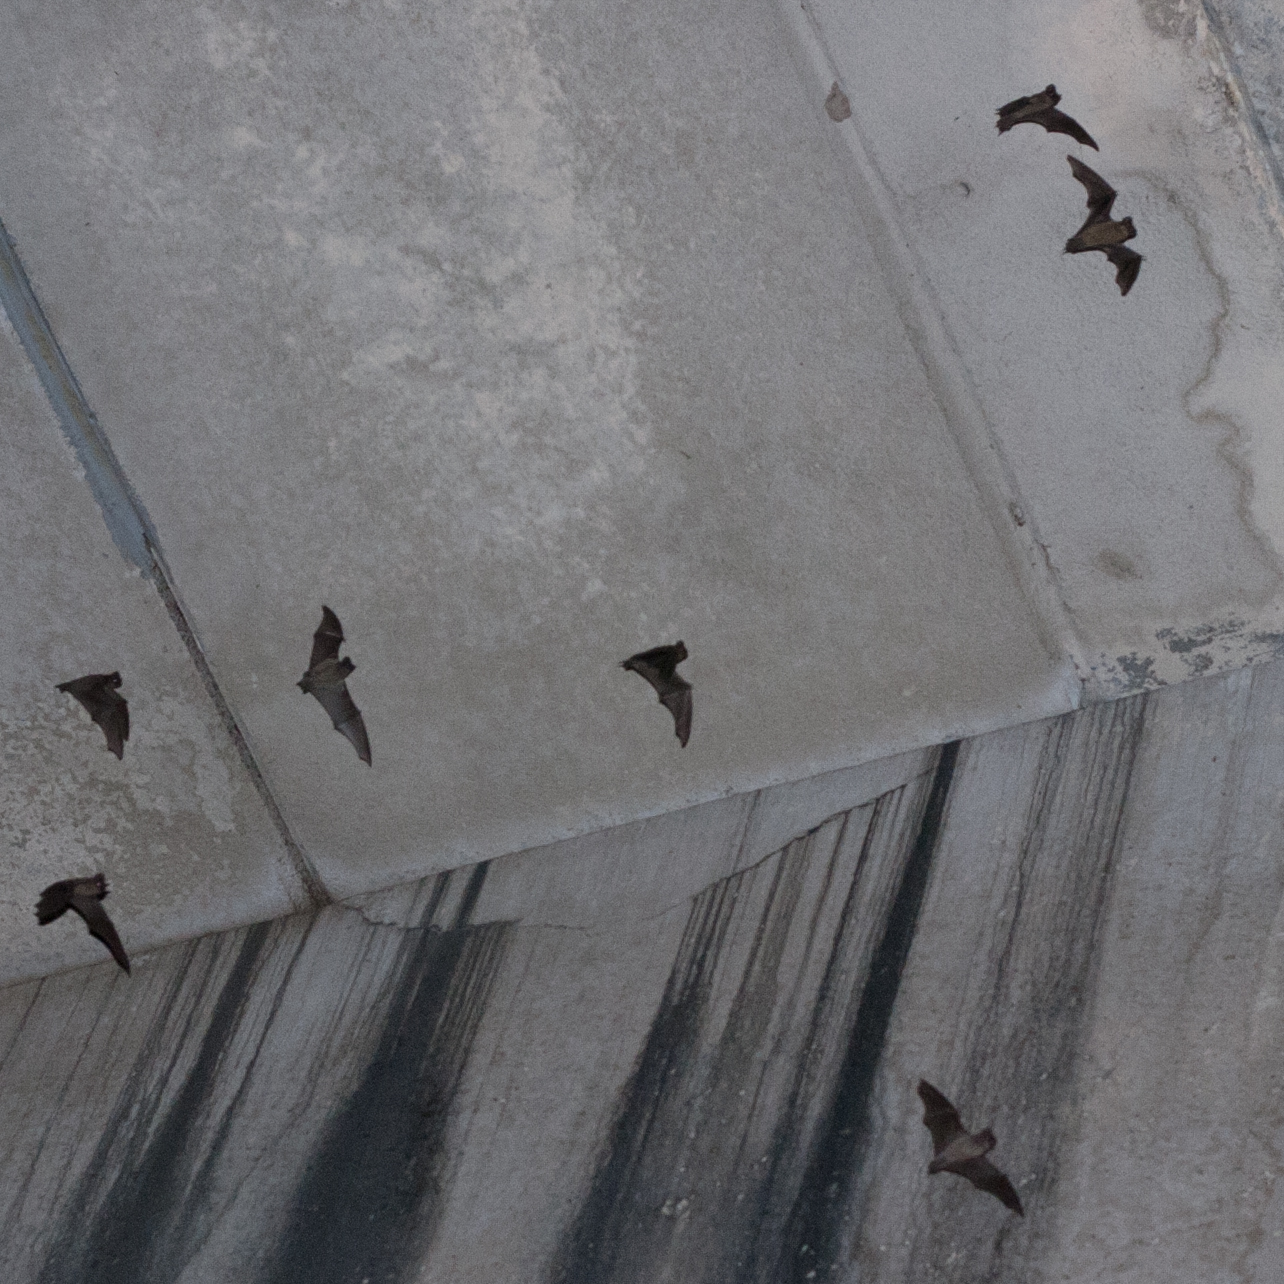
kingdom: Animalia
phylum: Chordata
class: Mammalia
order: Chiroptera
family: Molossidae
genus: Tadarida
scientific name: Tadarida brasiliensis
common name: Mexican free-tailed bat
